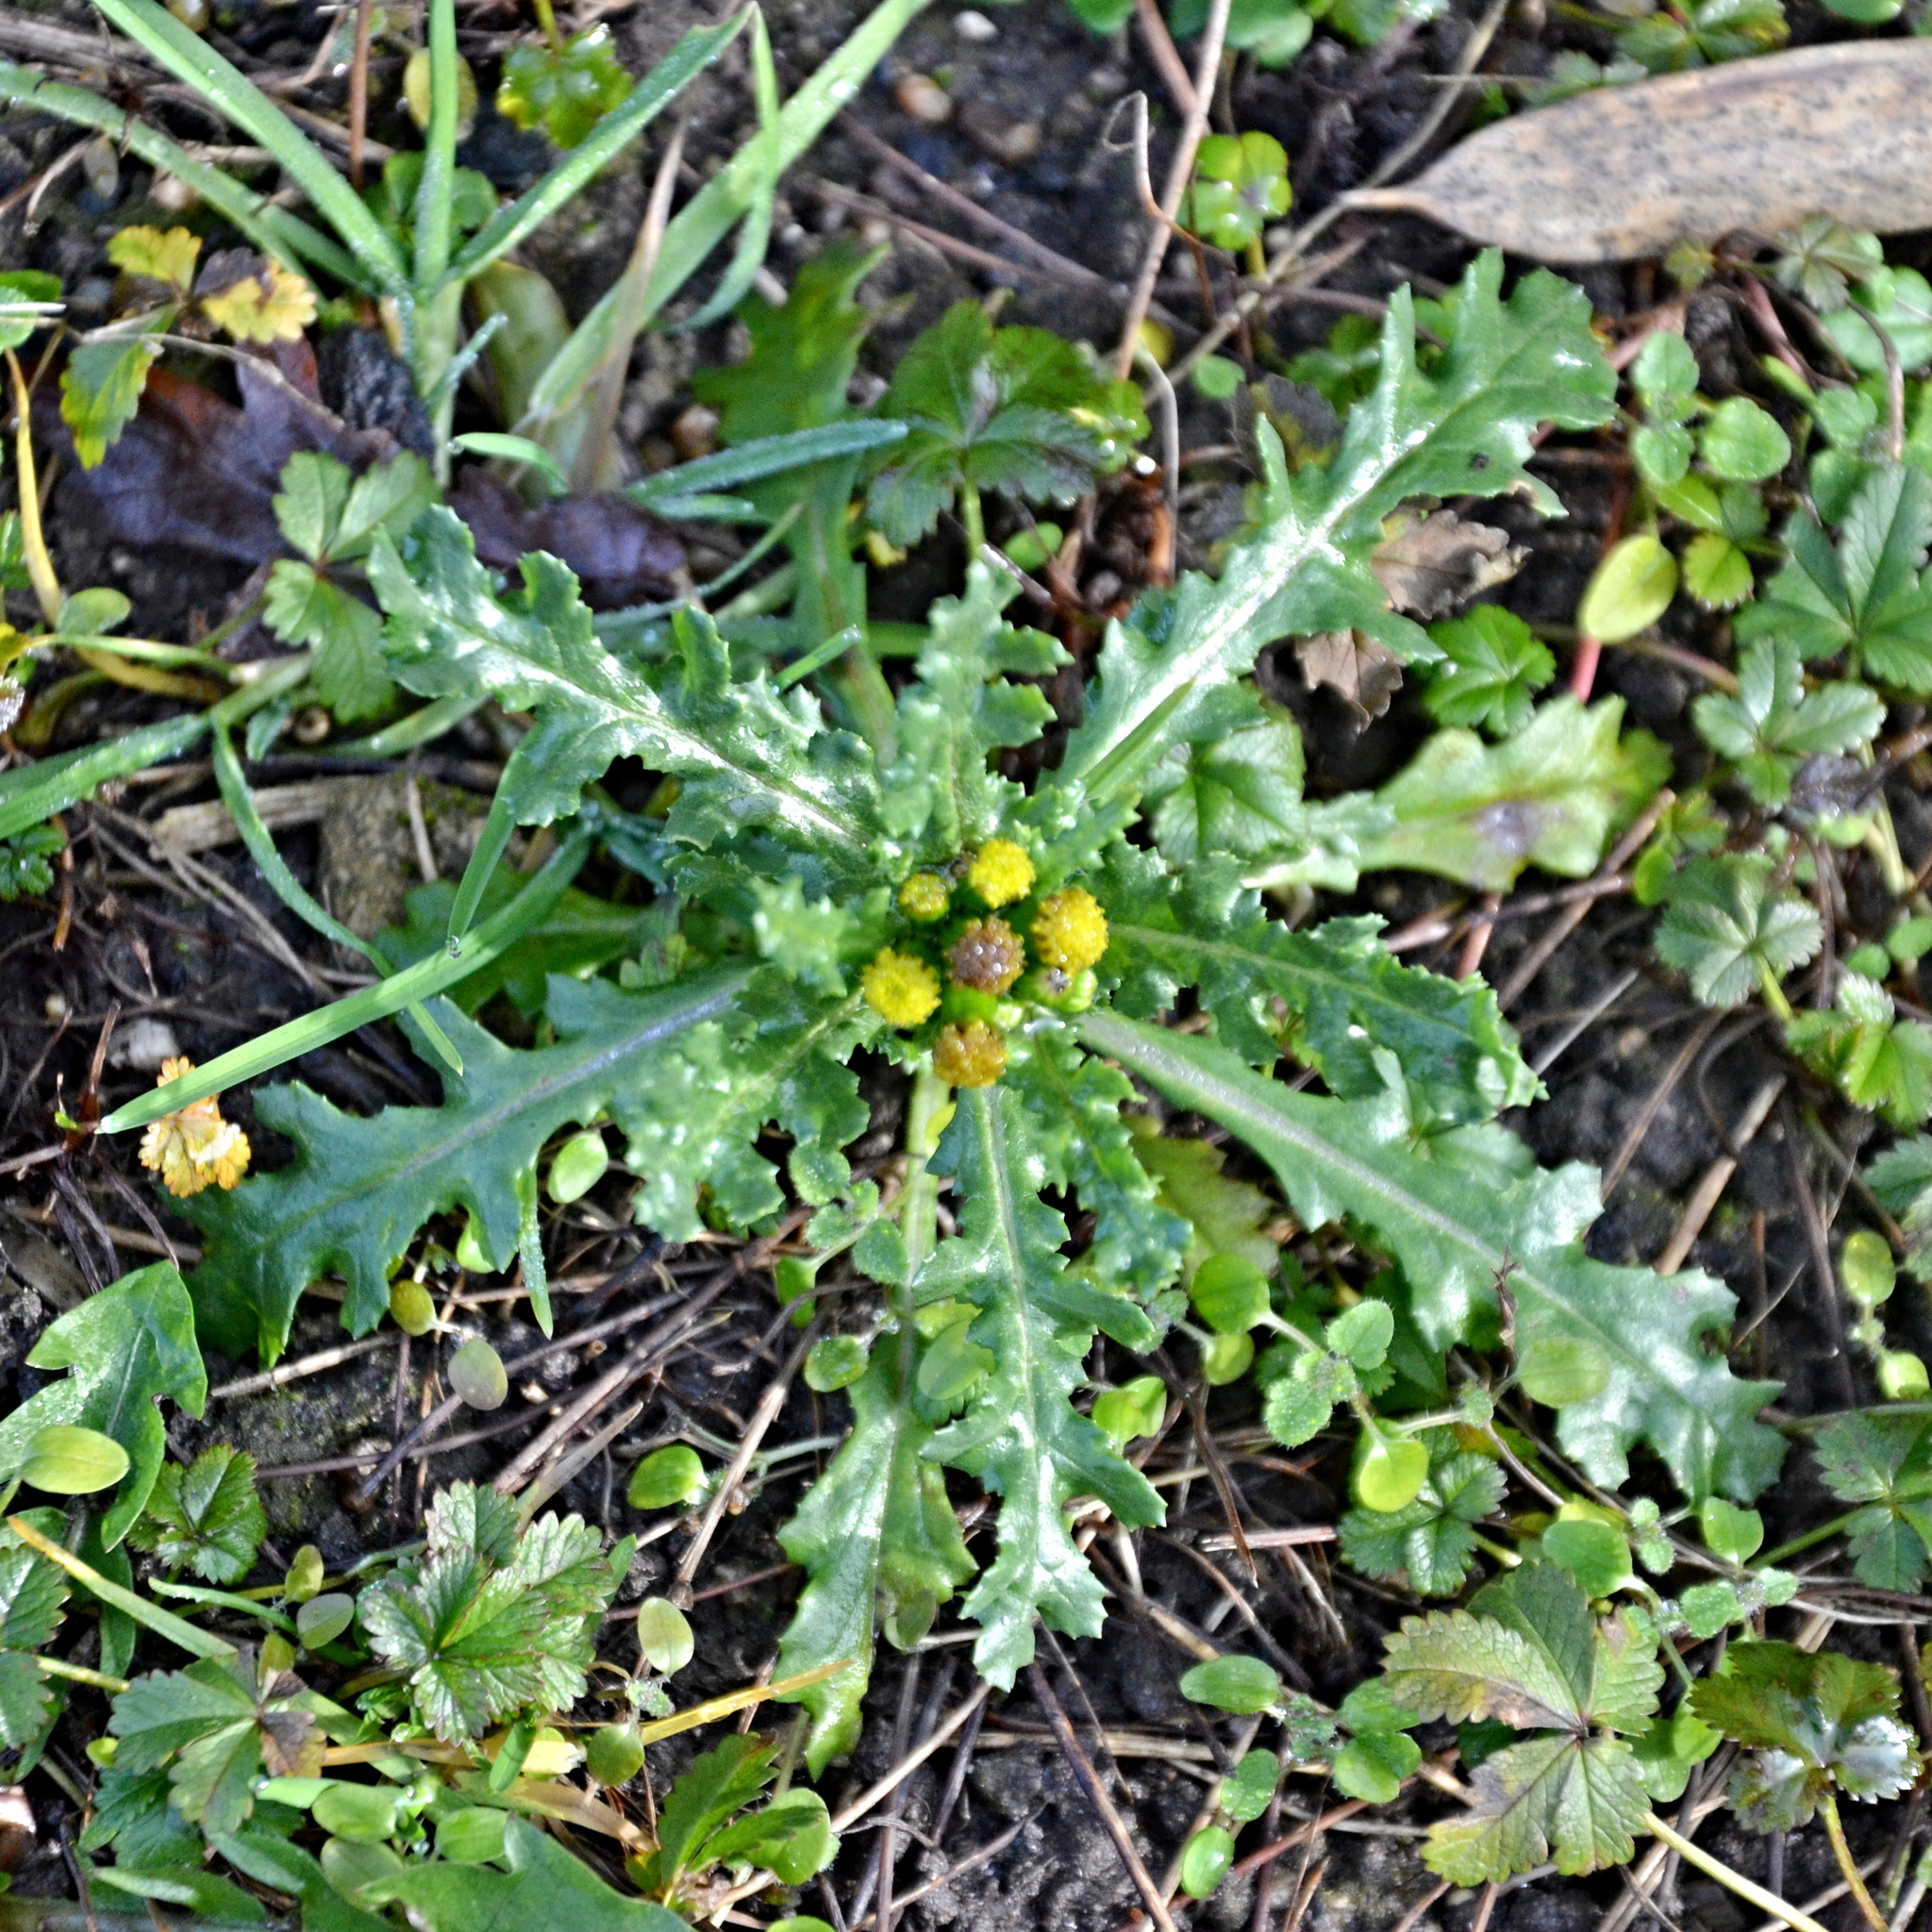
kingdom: Plantae
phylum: Tracheophyta
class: Magnoliopsida
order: Asterales
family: Asteraceae
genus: Senecio
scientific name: Senecio vulgaris
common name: Old-man-in-the-spring
